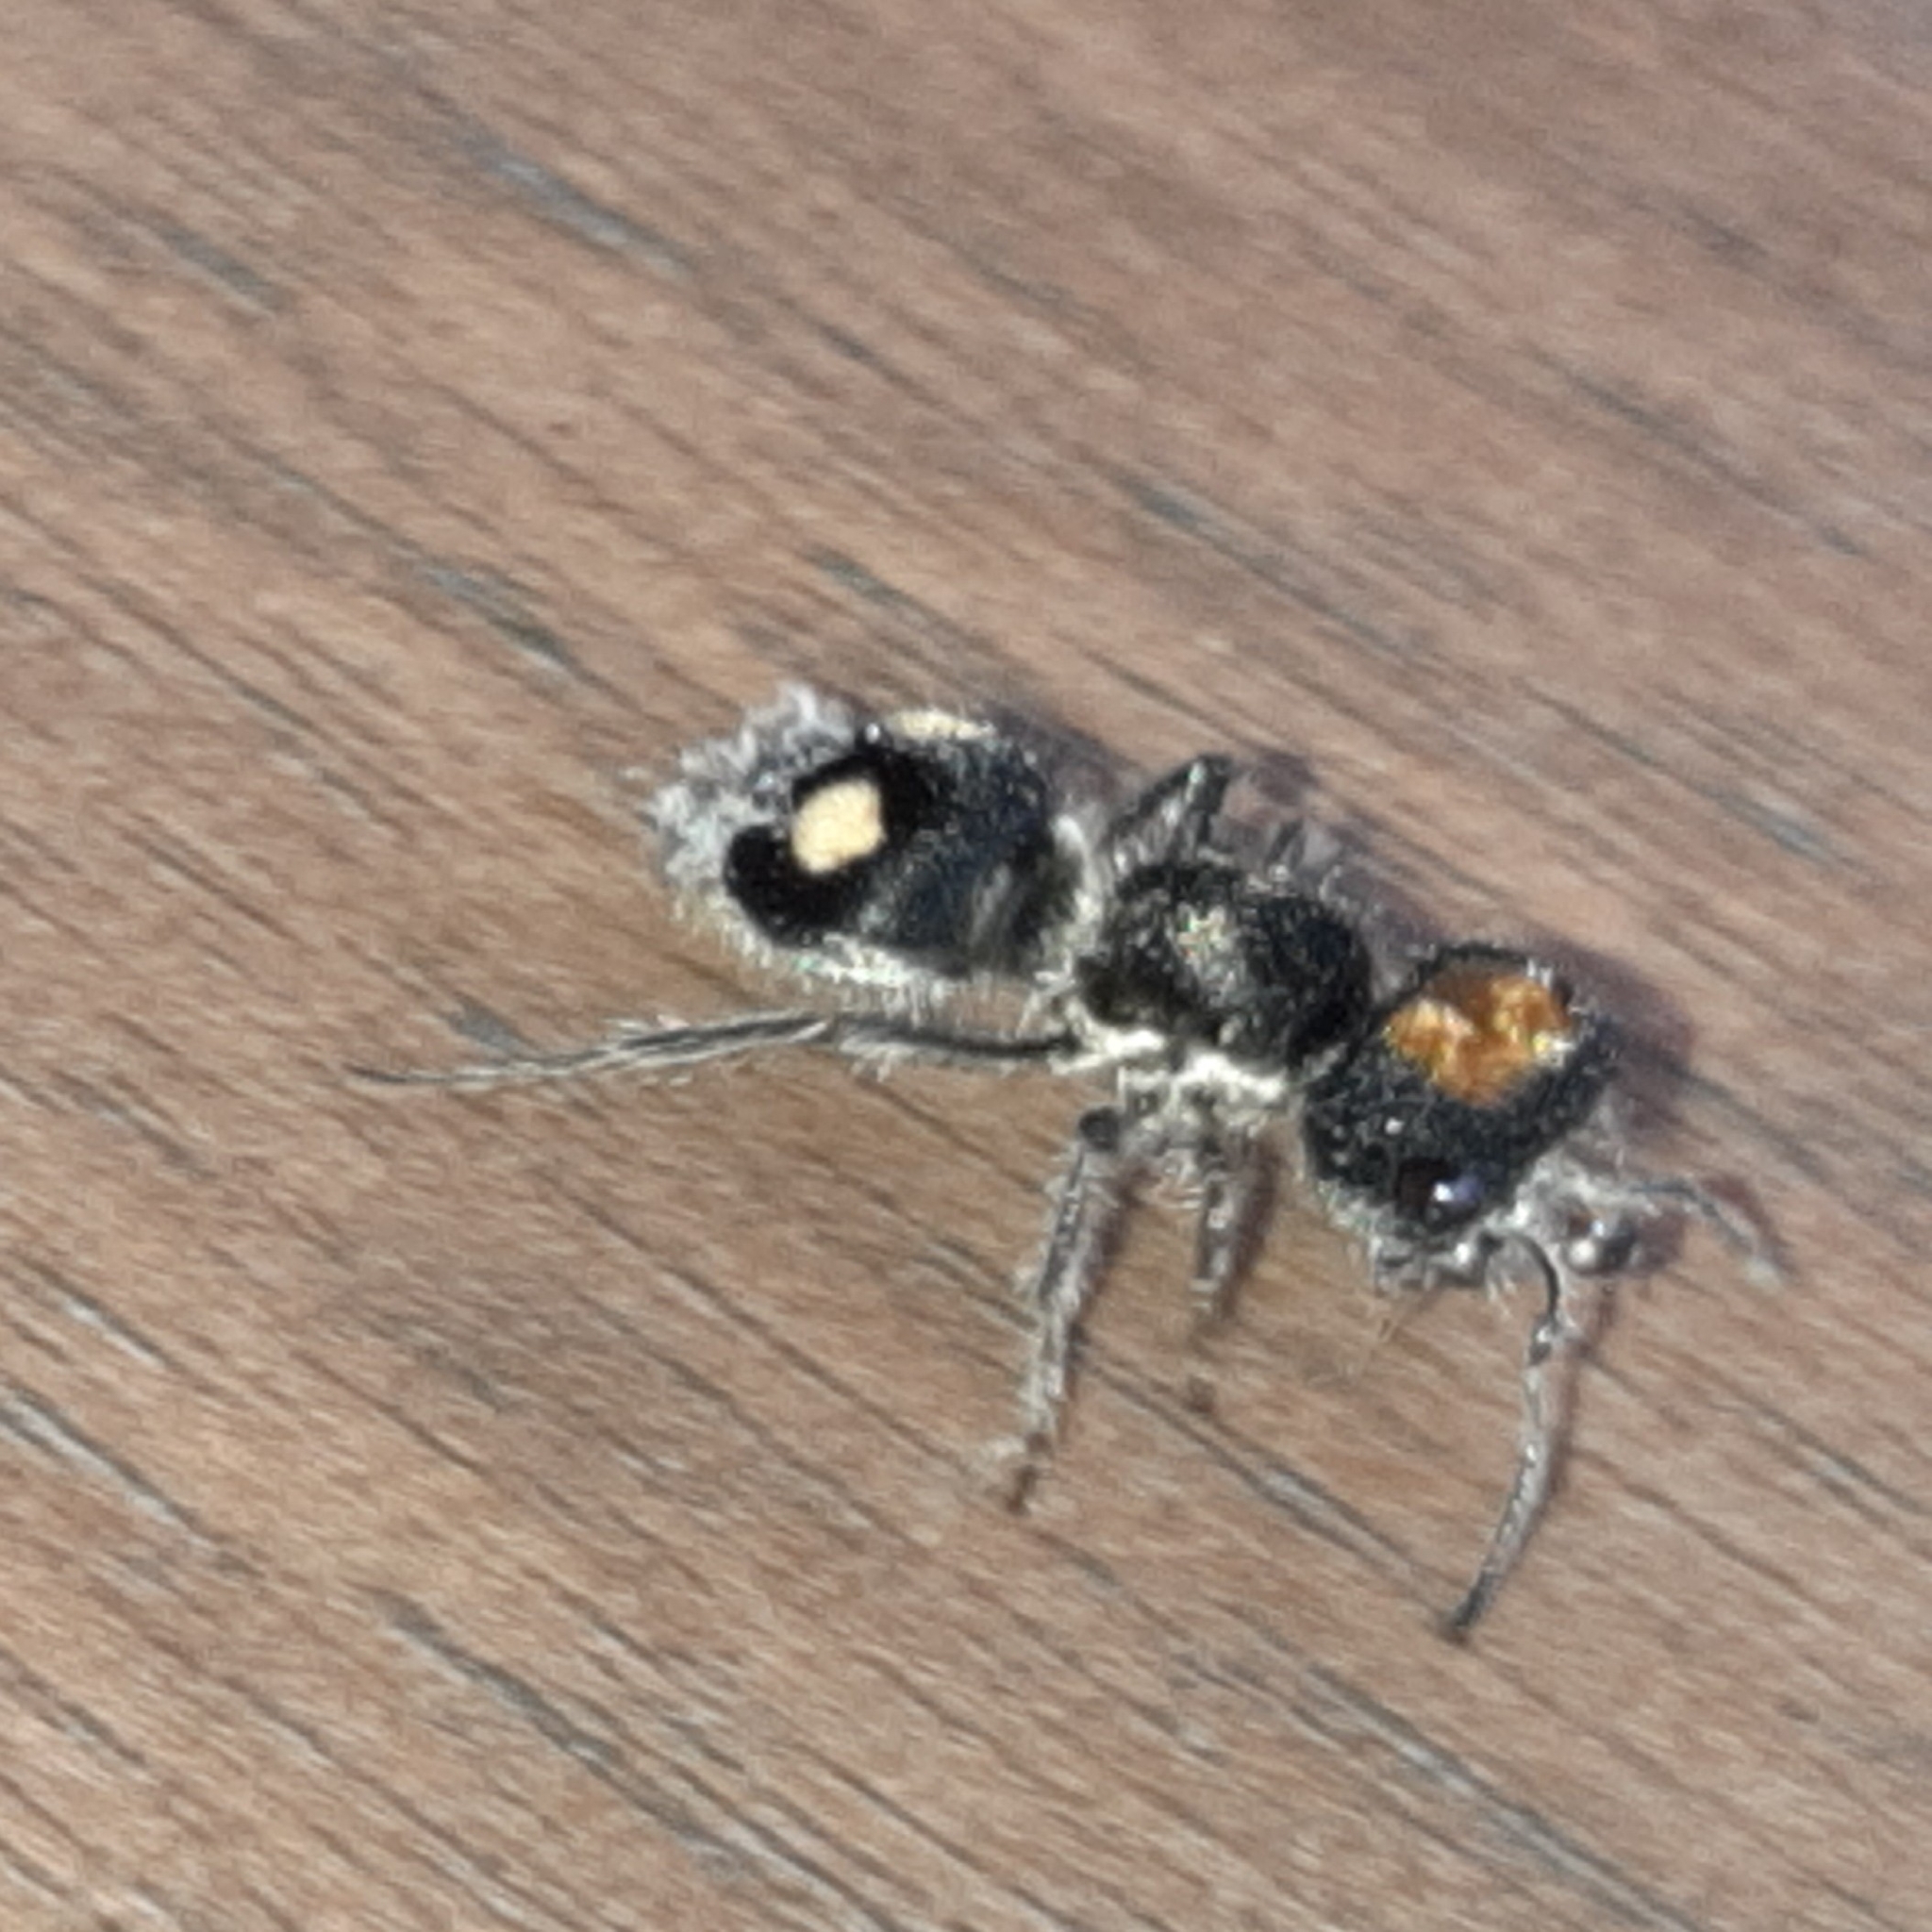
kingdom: Animalia
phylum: Arthropoda
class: Insecta
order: Hymenoptera
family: Mutillidae
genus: Hoplognathoca
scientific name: Hoplognathoca costarricensis
